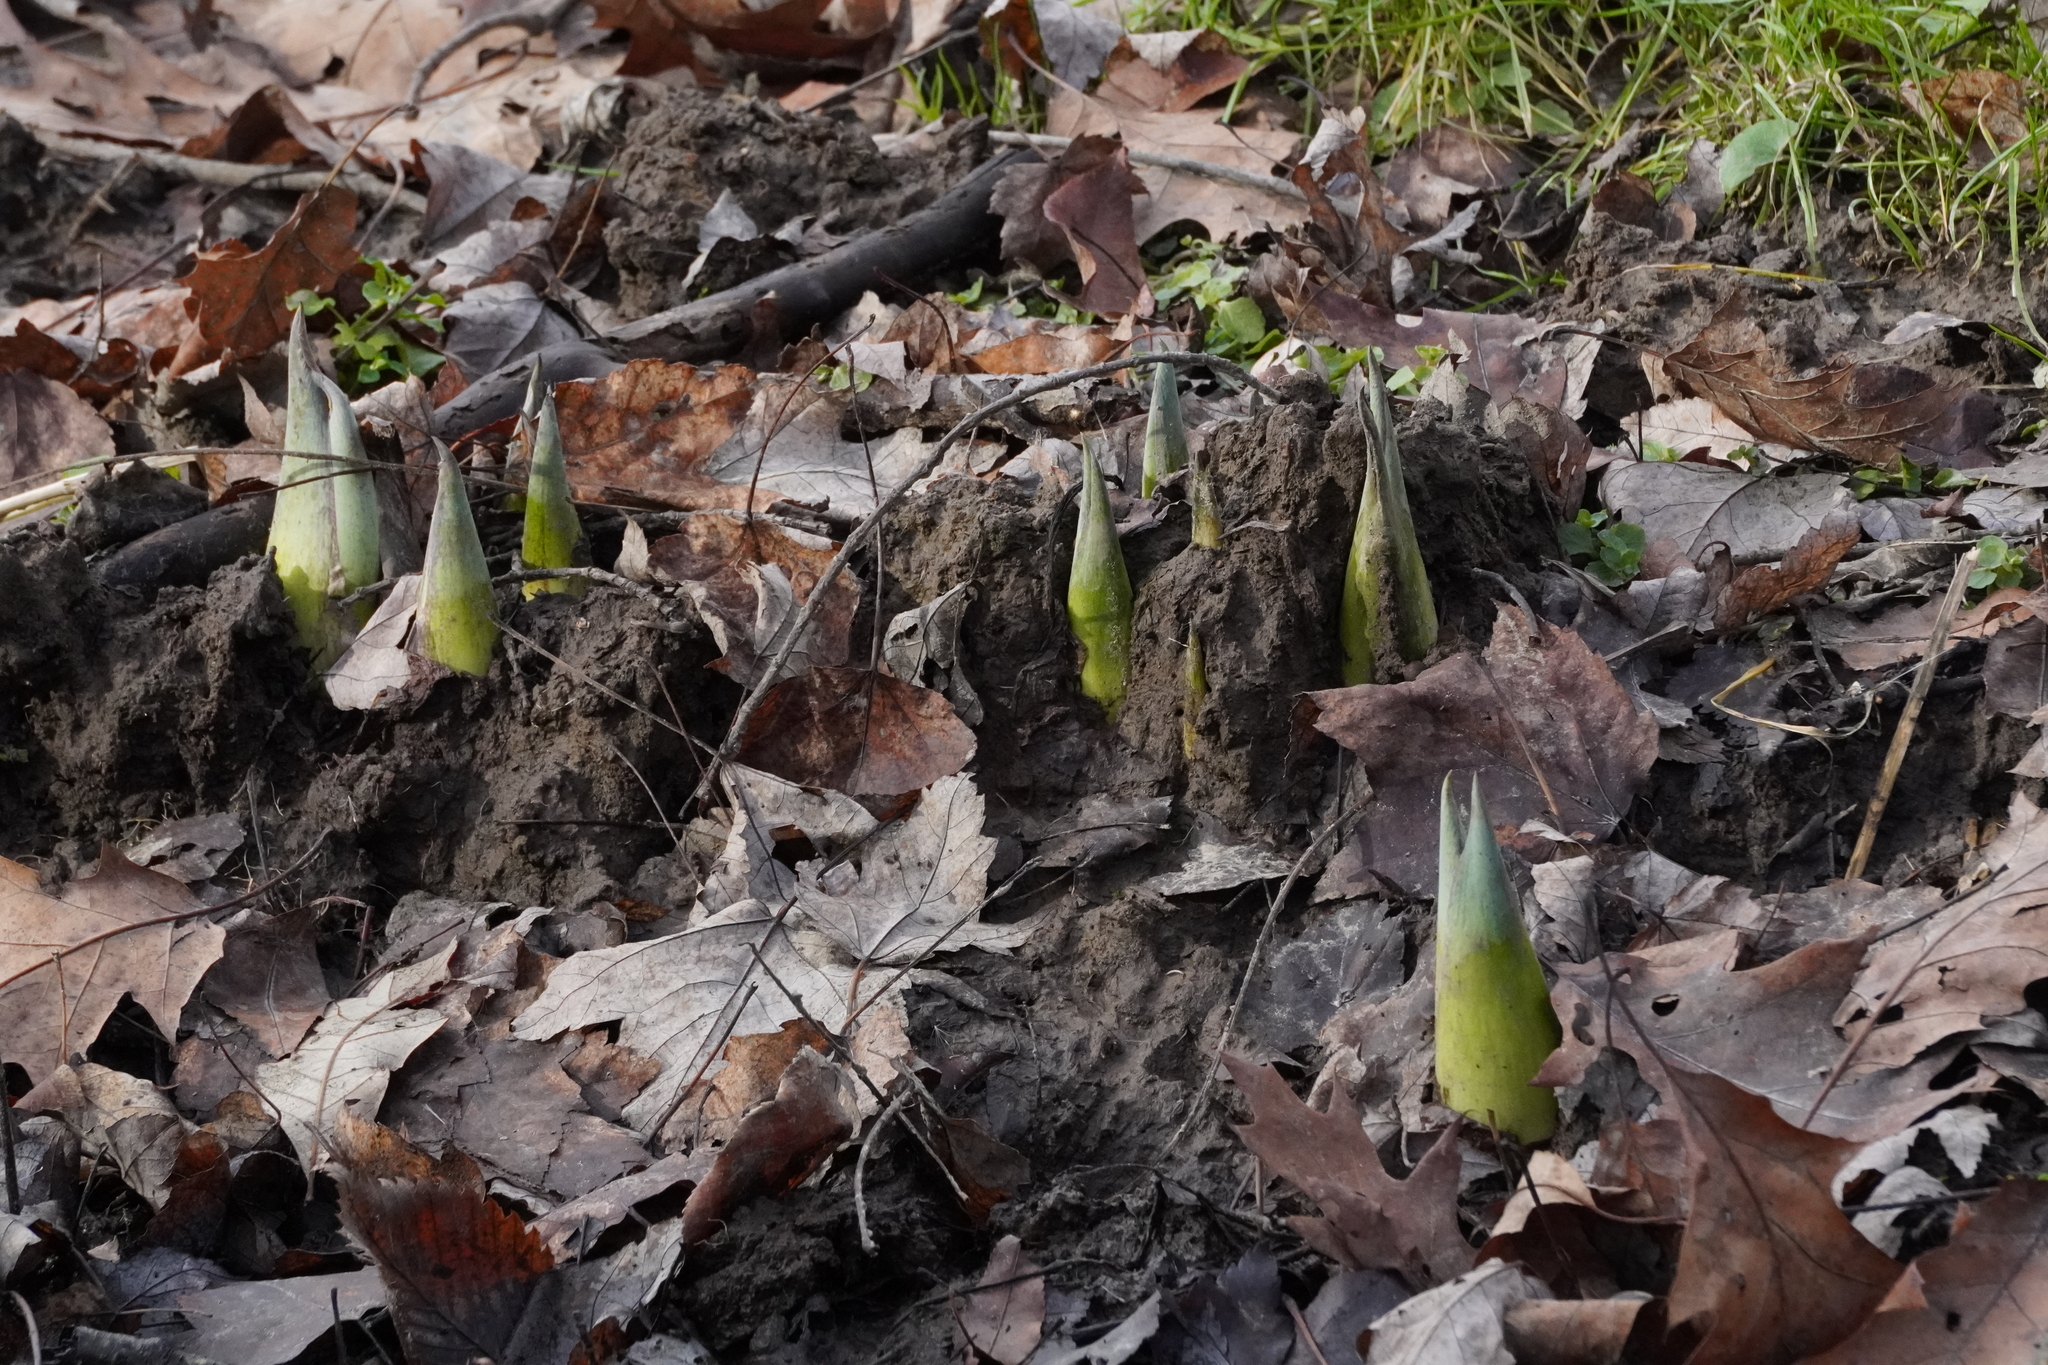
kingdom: Plantae
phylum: Tracheophyta
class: Liliopsida
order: Alismatales
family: Araceae
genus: Symplocarpus
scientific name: Symplocarpus foetidus
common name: Eastern skunk cabbage
